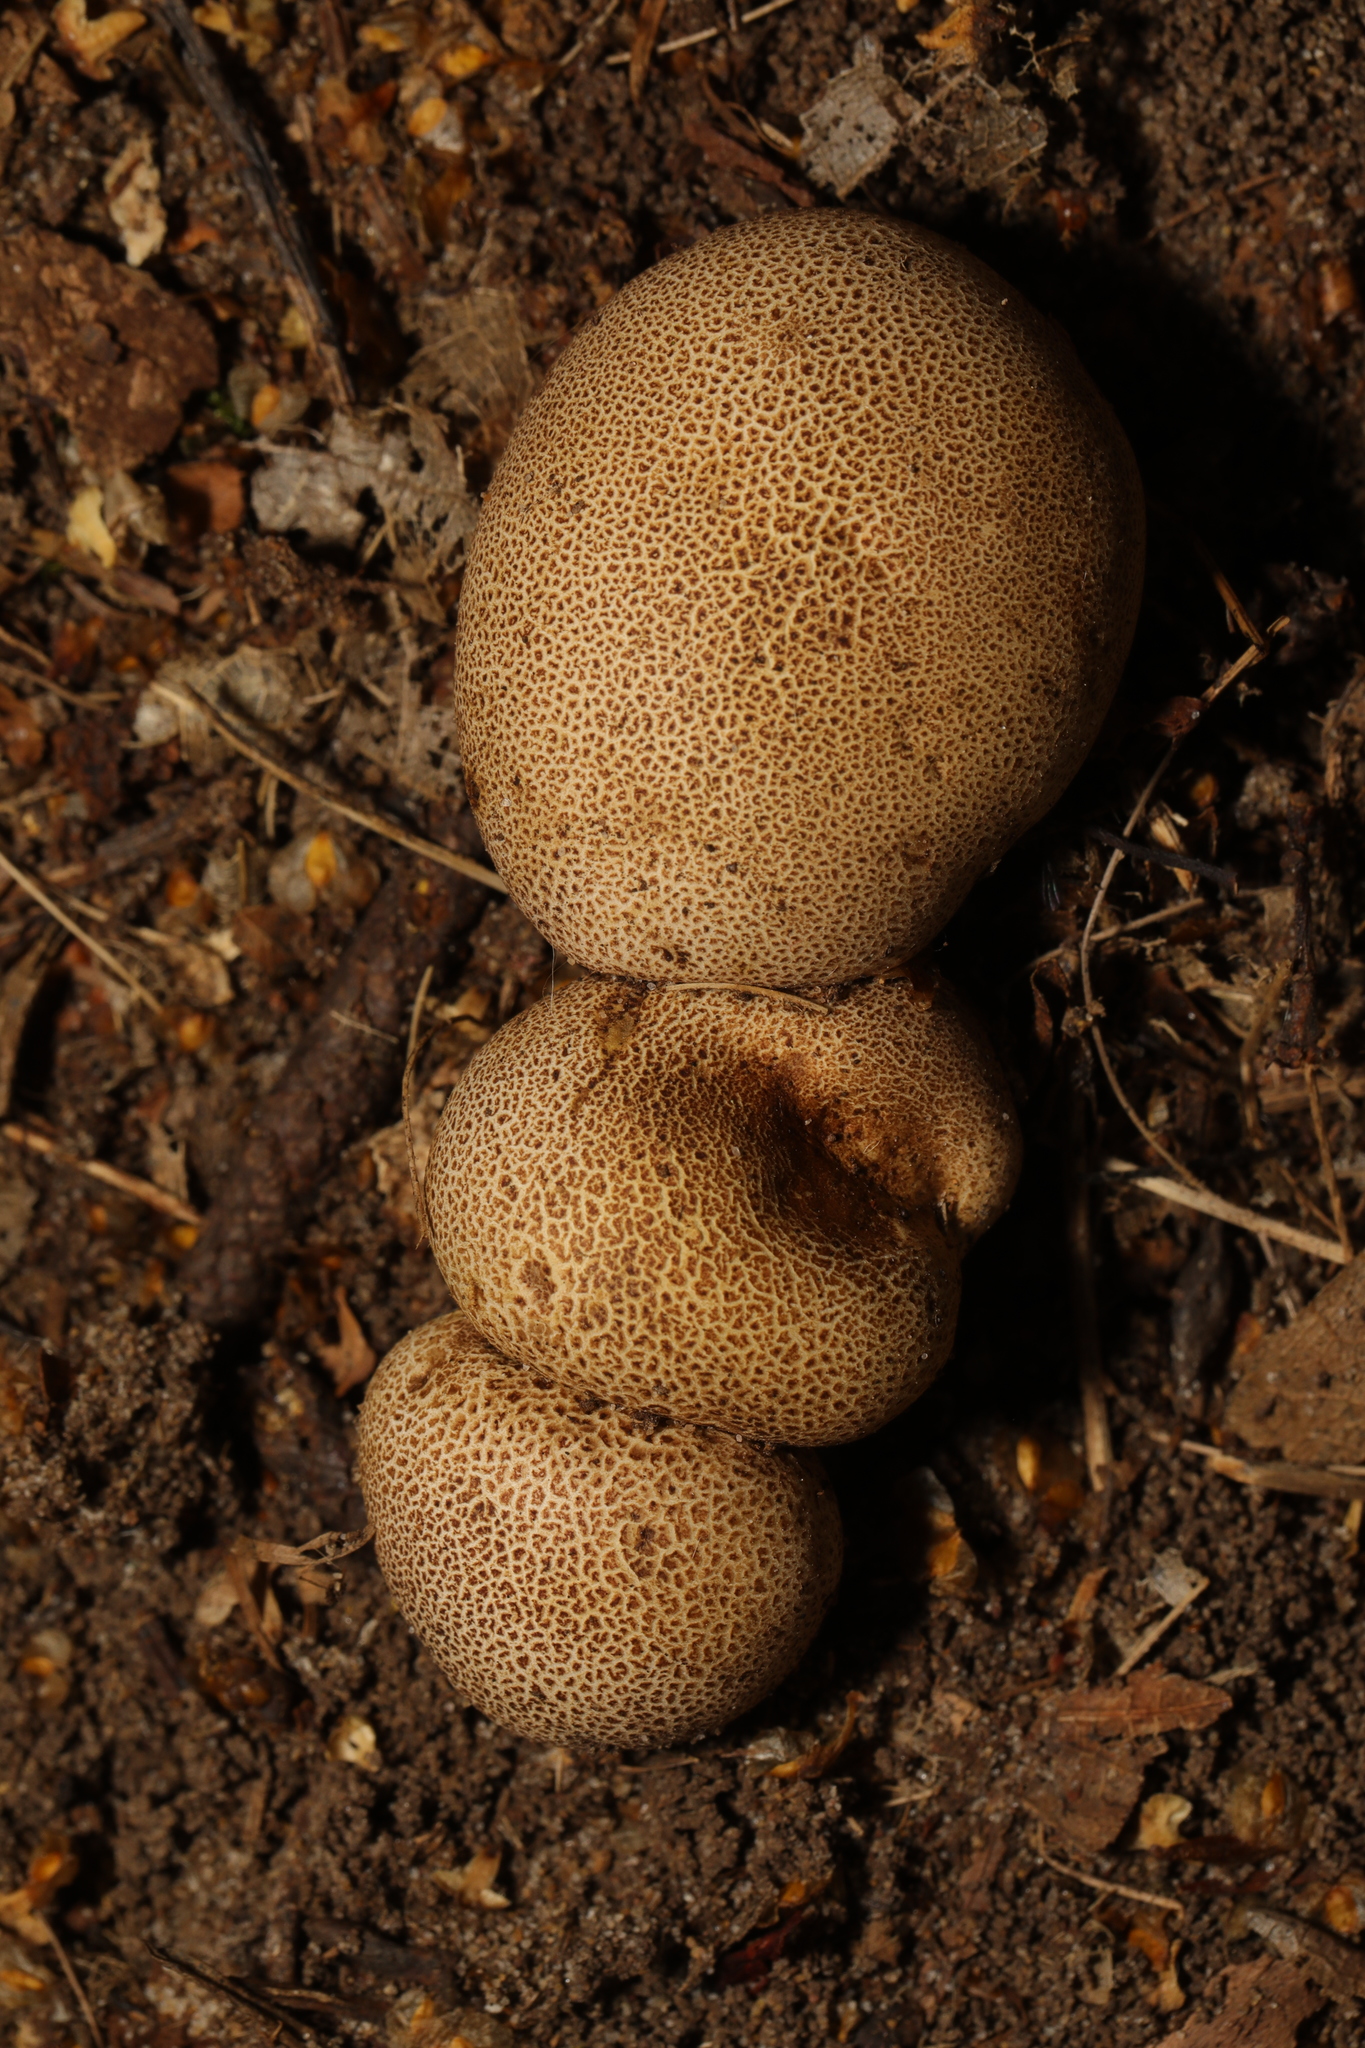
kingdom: Fungi
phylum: Basidiomycota
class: Agaricomycetes
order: Boletales
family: Sclerodermataceae
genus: Scleroderma
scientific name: Scleroderma citrinum
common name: Common earthball
